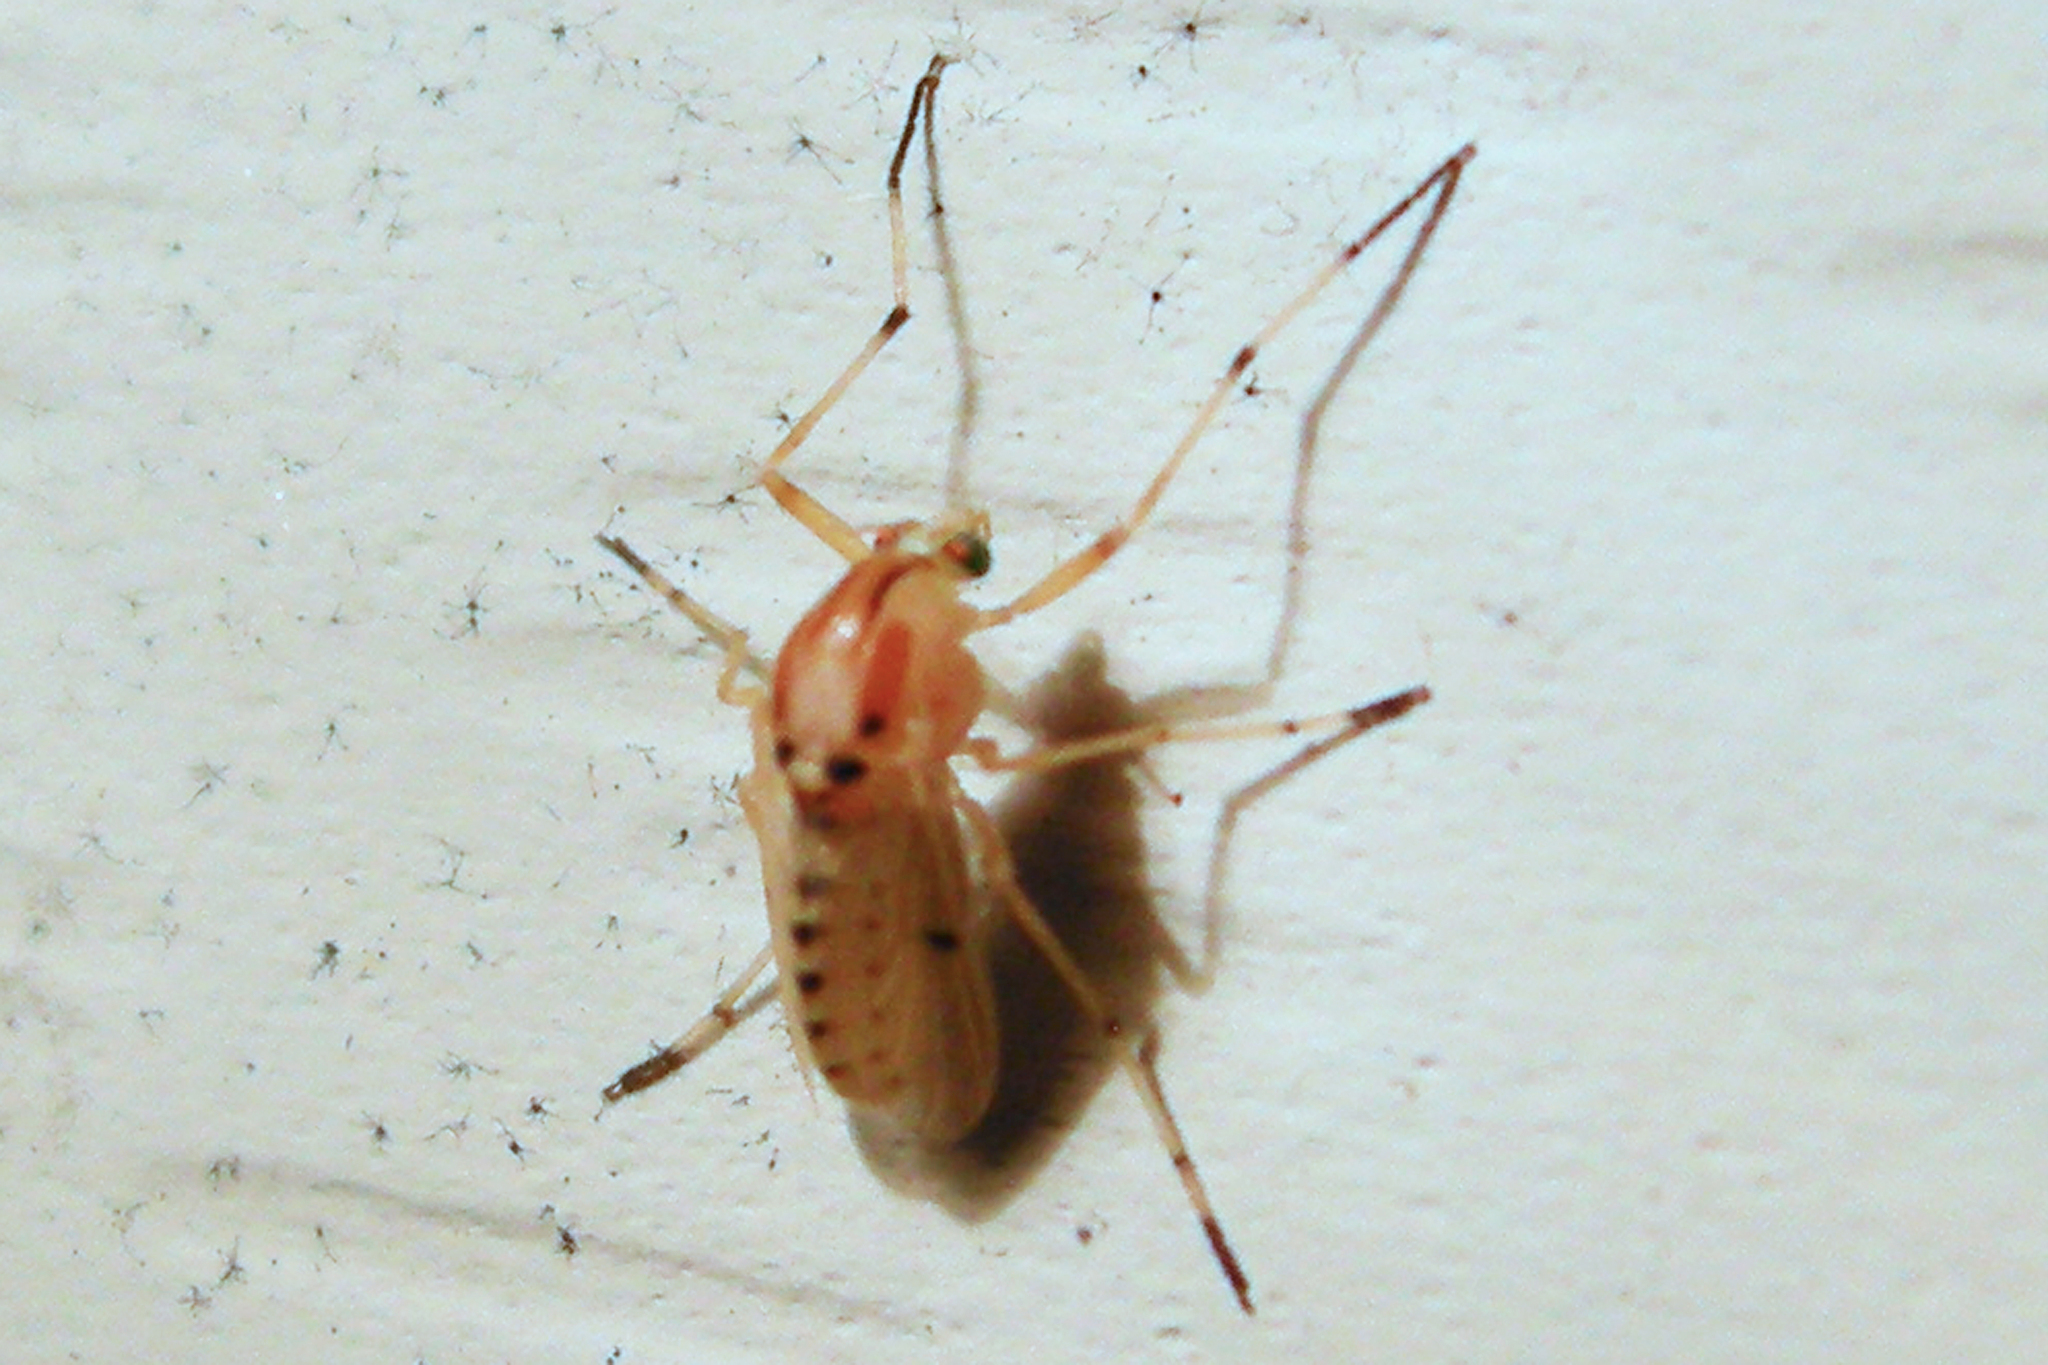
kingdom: Animalia
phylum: Arthropoda
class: Insecta
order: Diptera
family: Chironomidae
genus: Coelotanypus
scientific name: Coelotanypus concinnus
